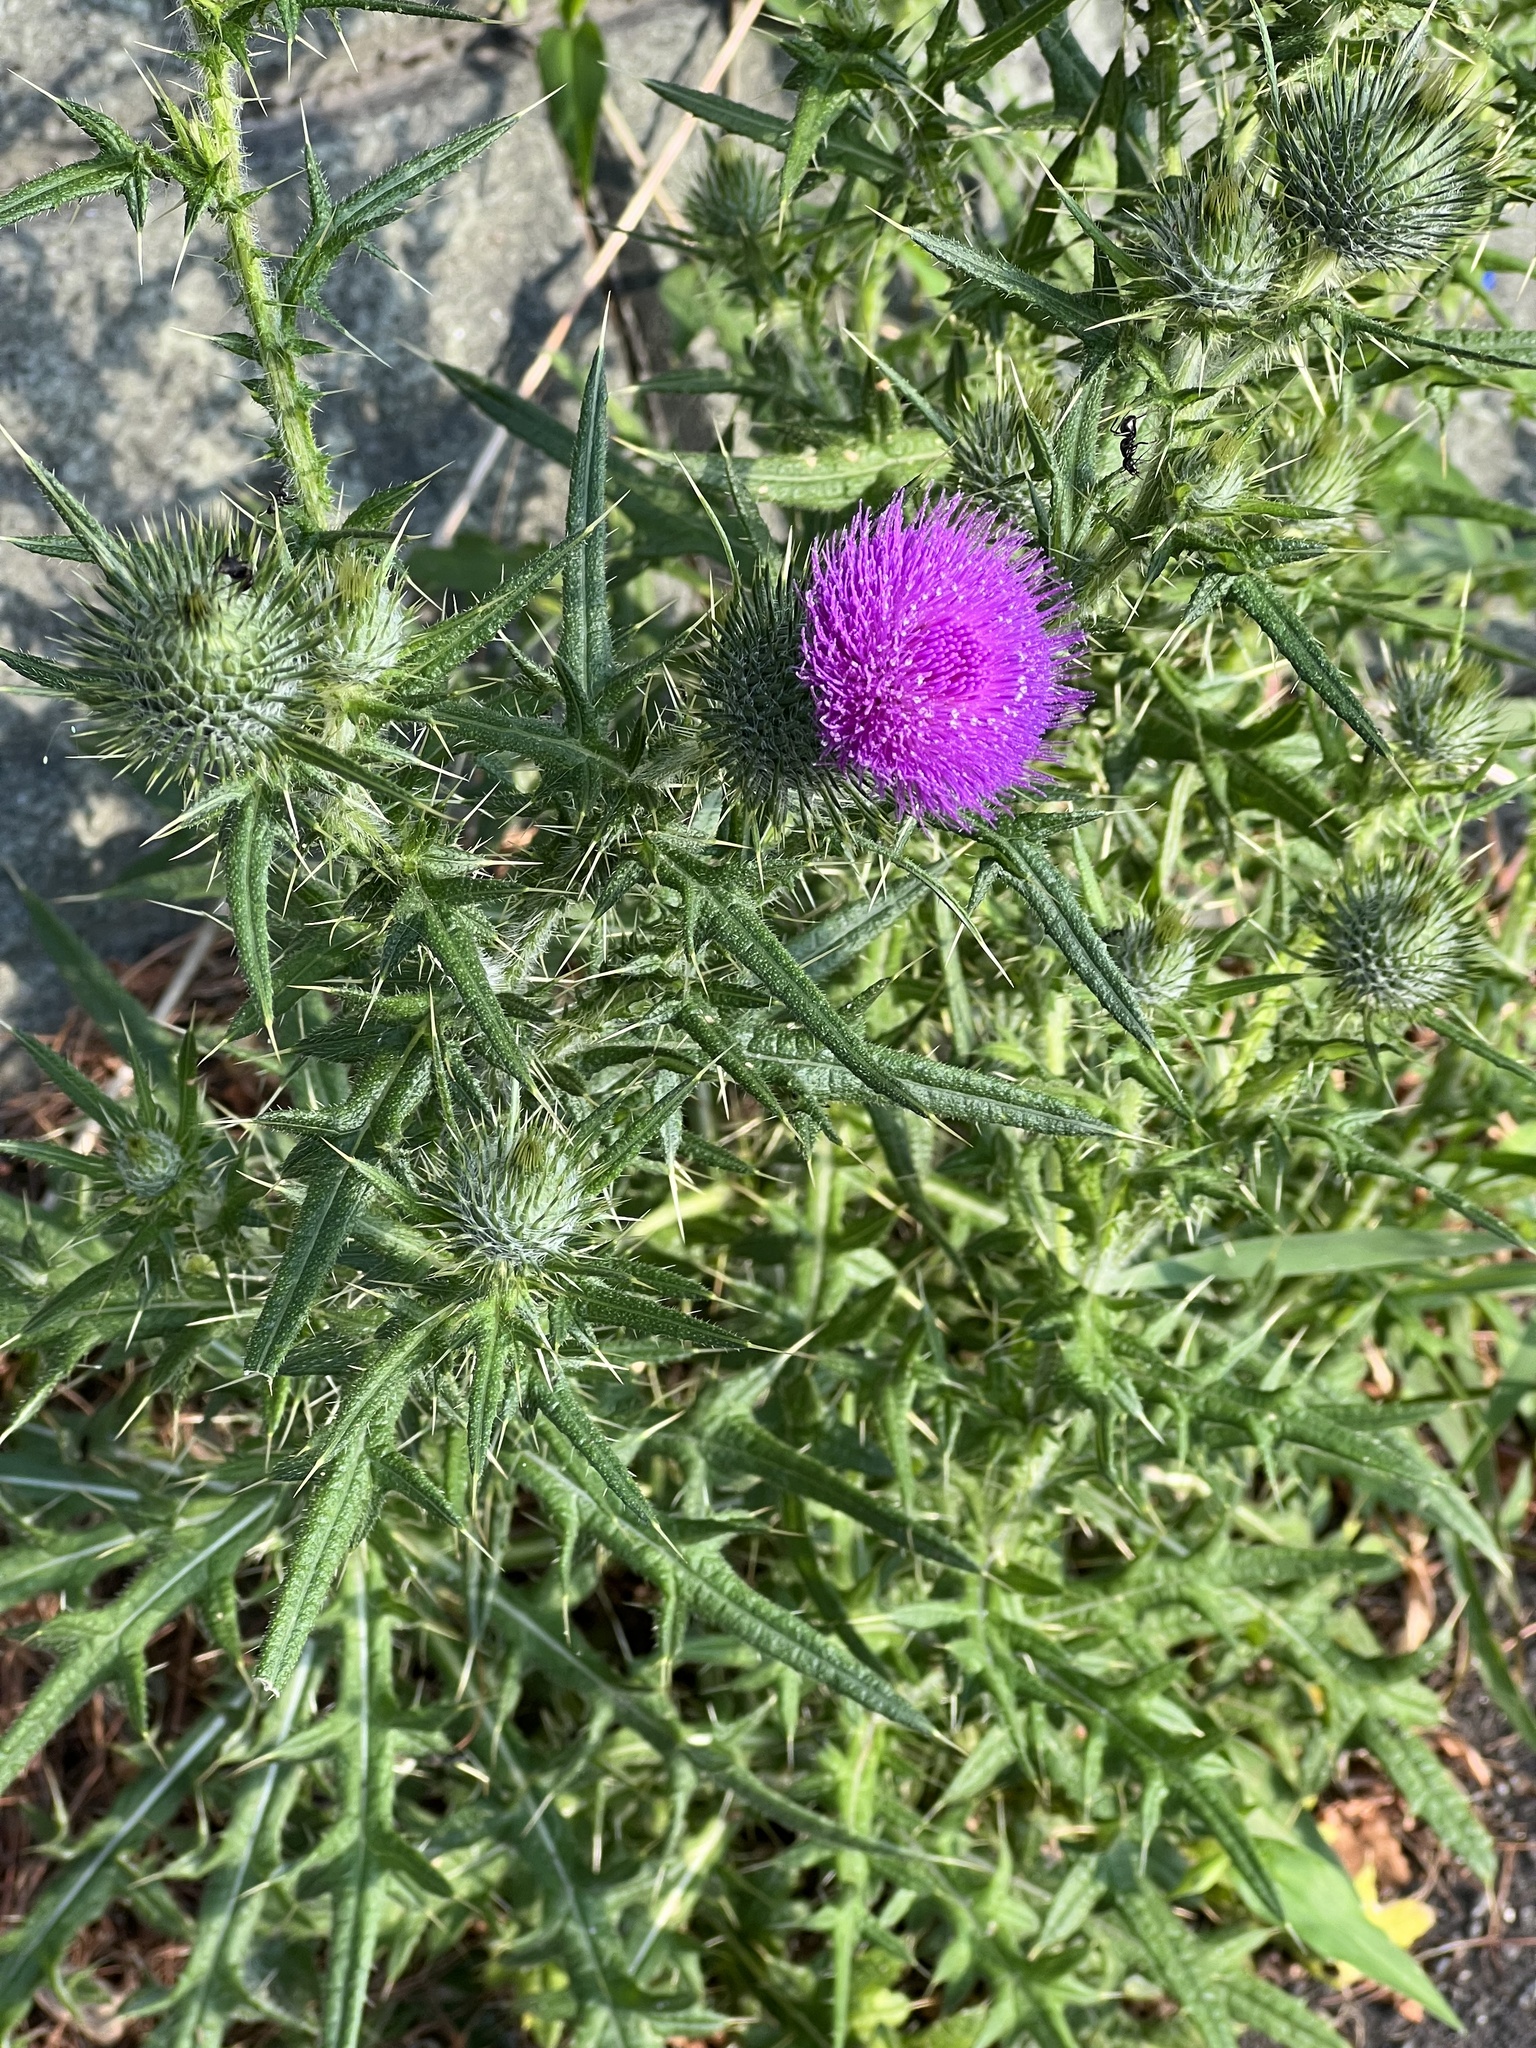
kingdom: Plantae
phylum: Tracheophyta
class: Magnoliopsida
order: Asterales
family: Asteraceae
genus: Cirsium
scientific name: Cirsium vulgare
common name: Bull thistle
